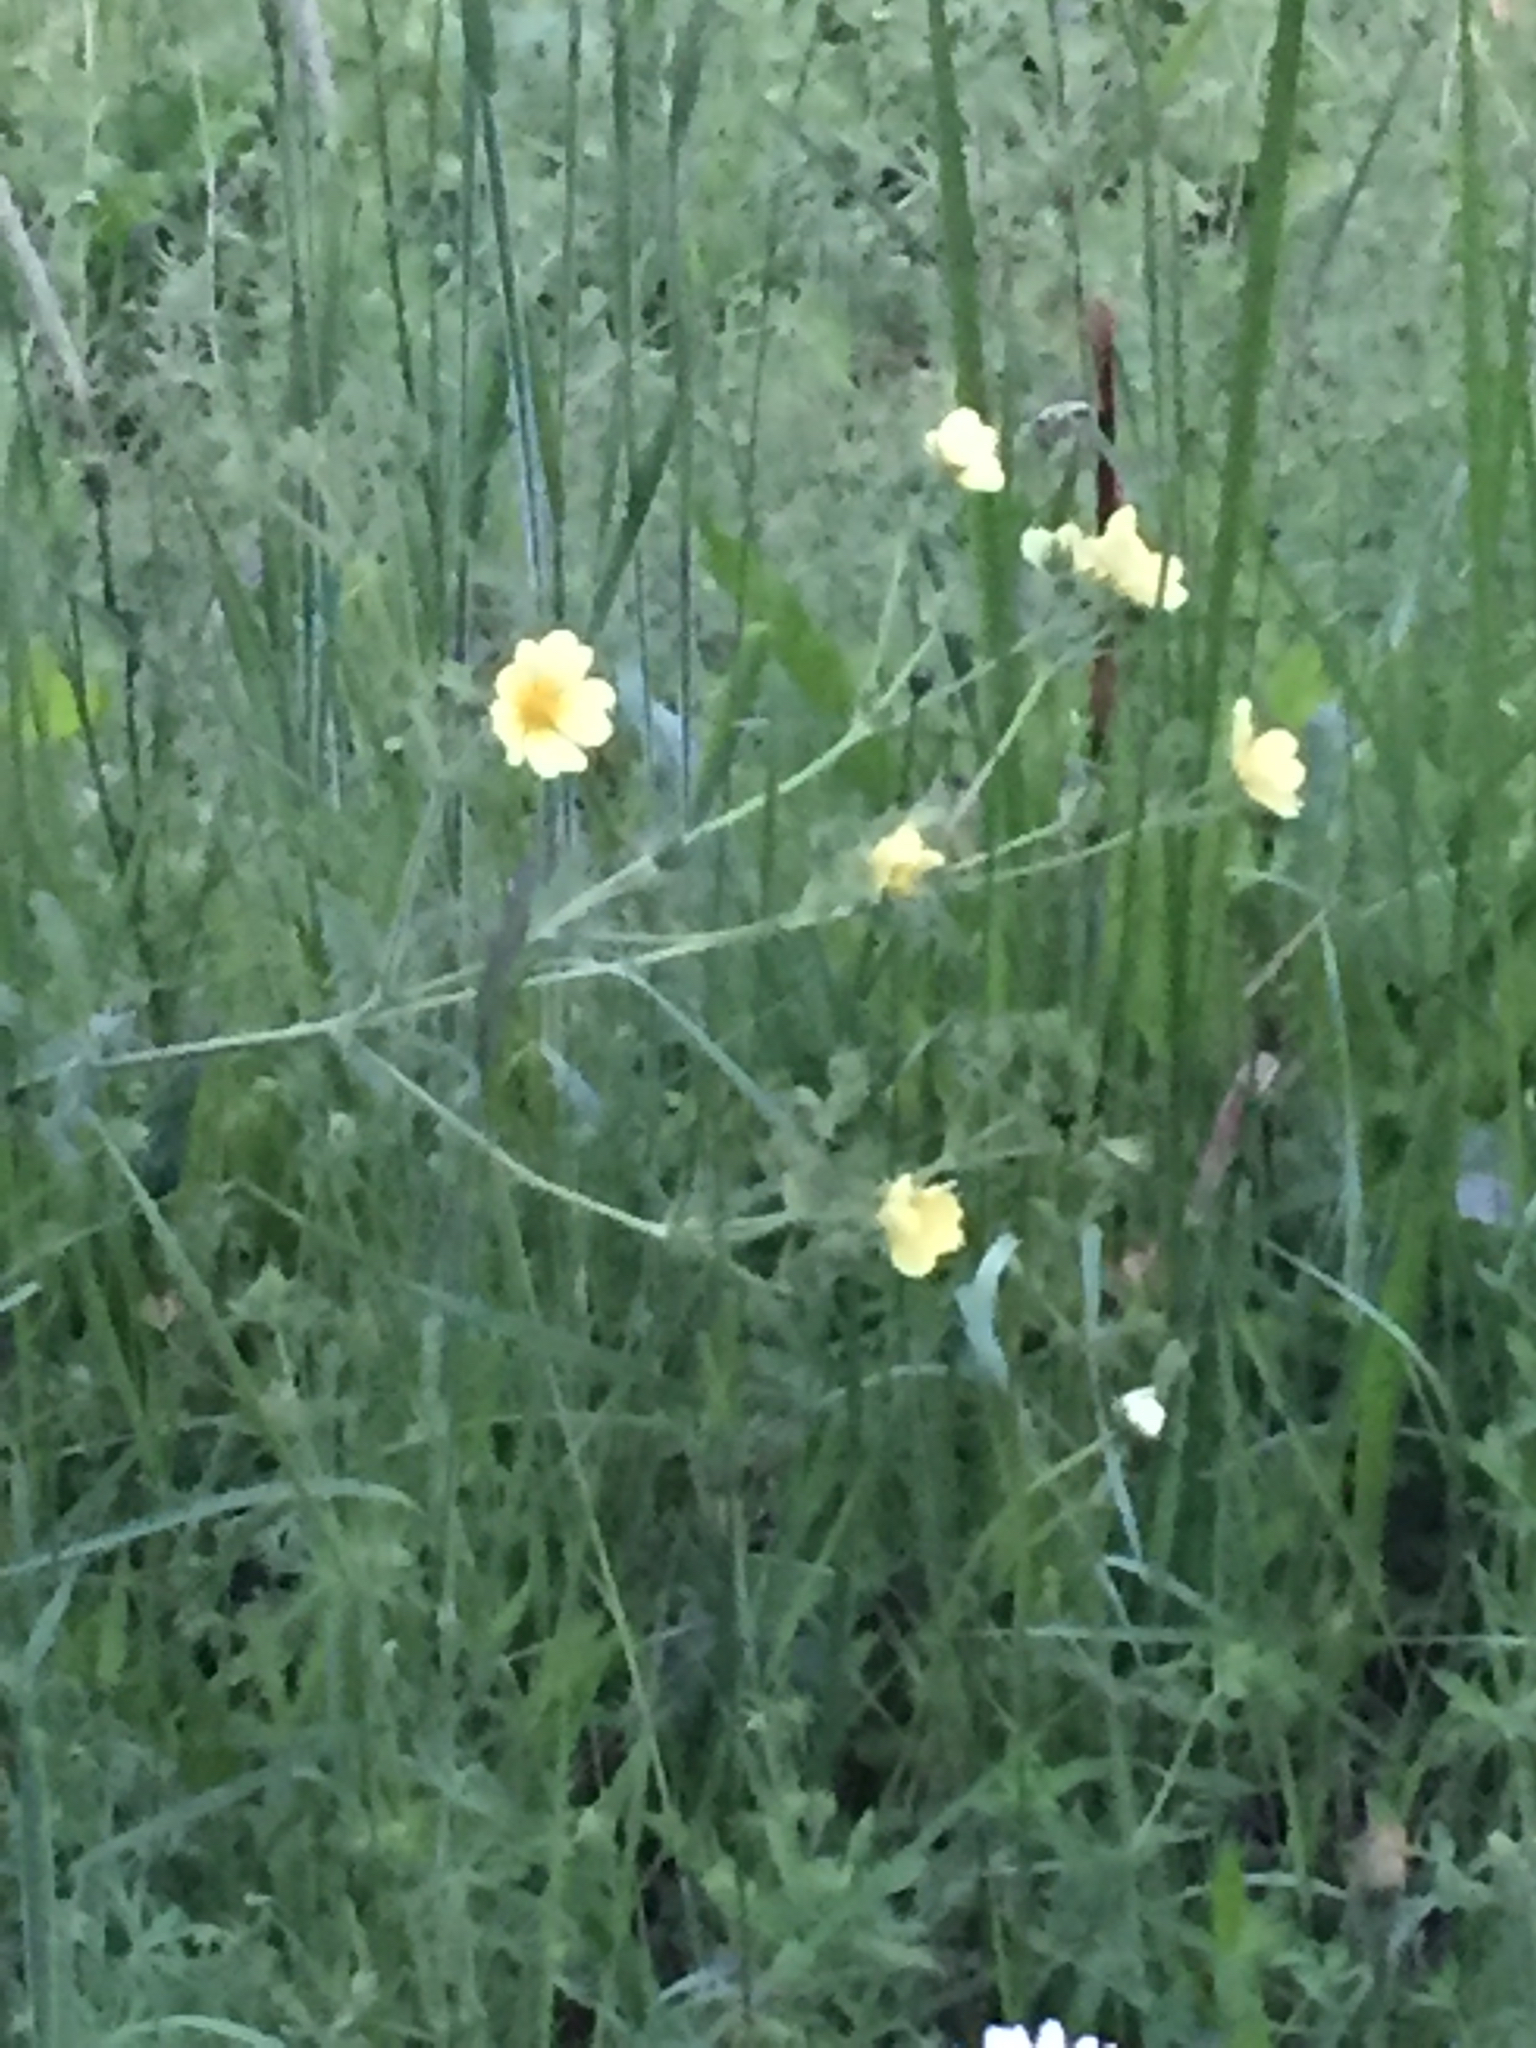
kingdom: Plantae
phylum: Tracheophyta
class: Magnoliopsida
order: Rosales
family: Rosaceae
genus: Potentilla
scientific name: Potentilla recta
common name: Sulphur cinquefoil
